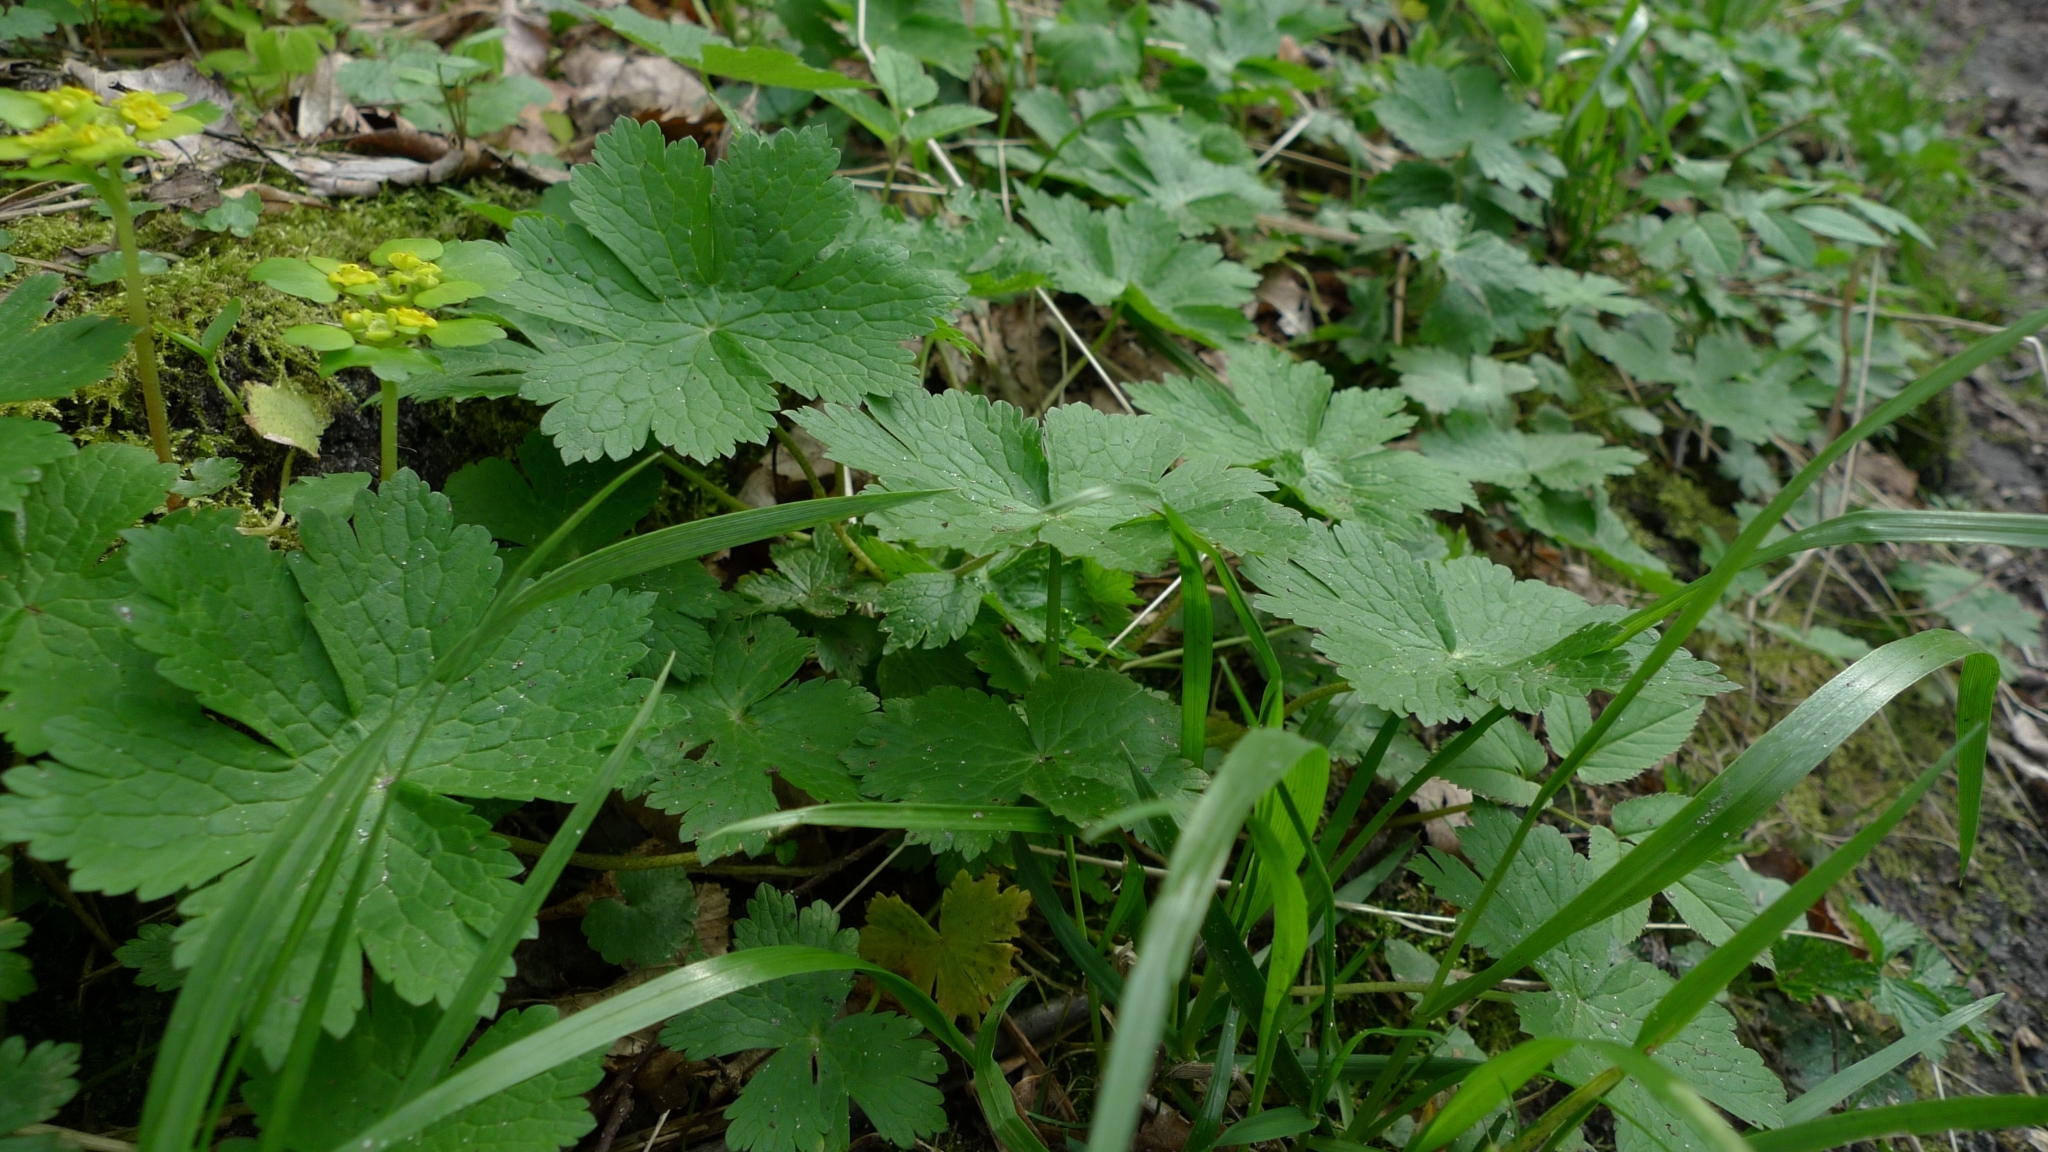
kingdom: Plantae
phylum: Tracheophyta
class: Magnoliopsida
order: Geraniales
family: Geraniaceae
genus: Geranium
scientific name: Geranium phaeum
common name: Dusky crane's-bill
